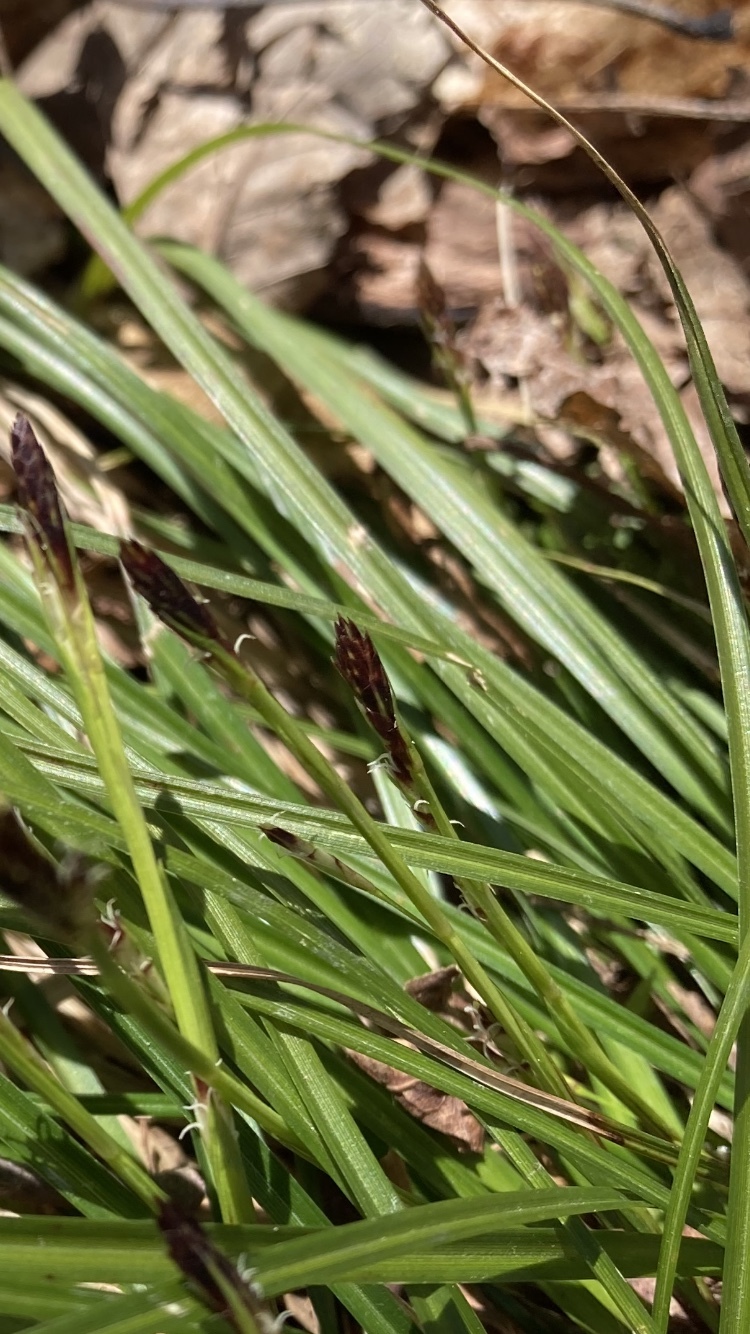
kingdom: Plantae
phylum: Tracheophyta
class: Liliopsida
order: Poales
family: Cyperaceae
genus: Carex
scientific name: Carex pedunculata
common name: Pedunculate sedge
